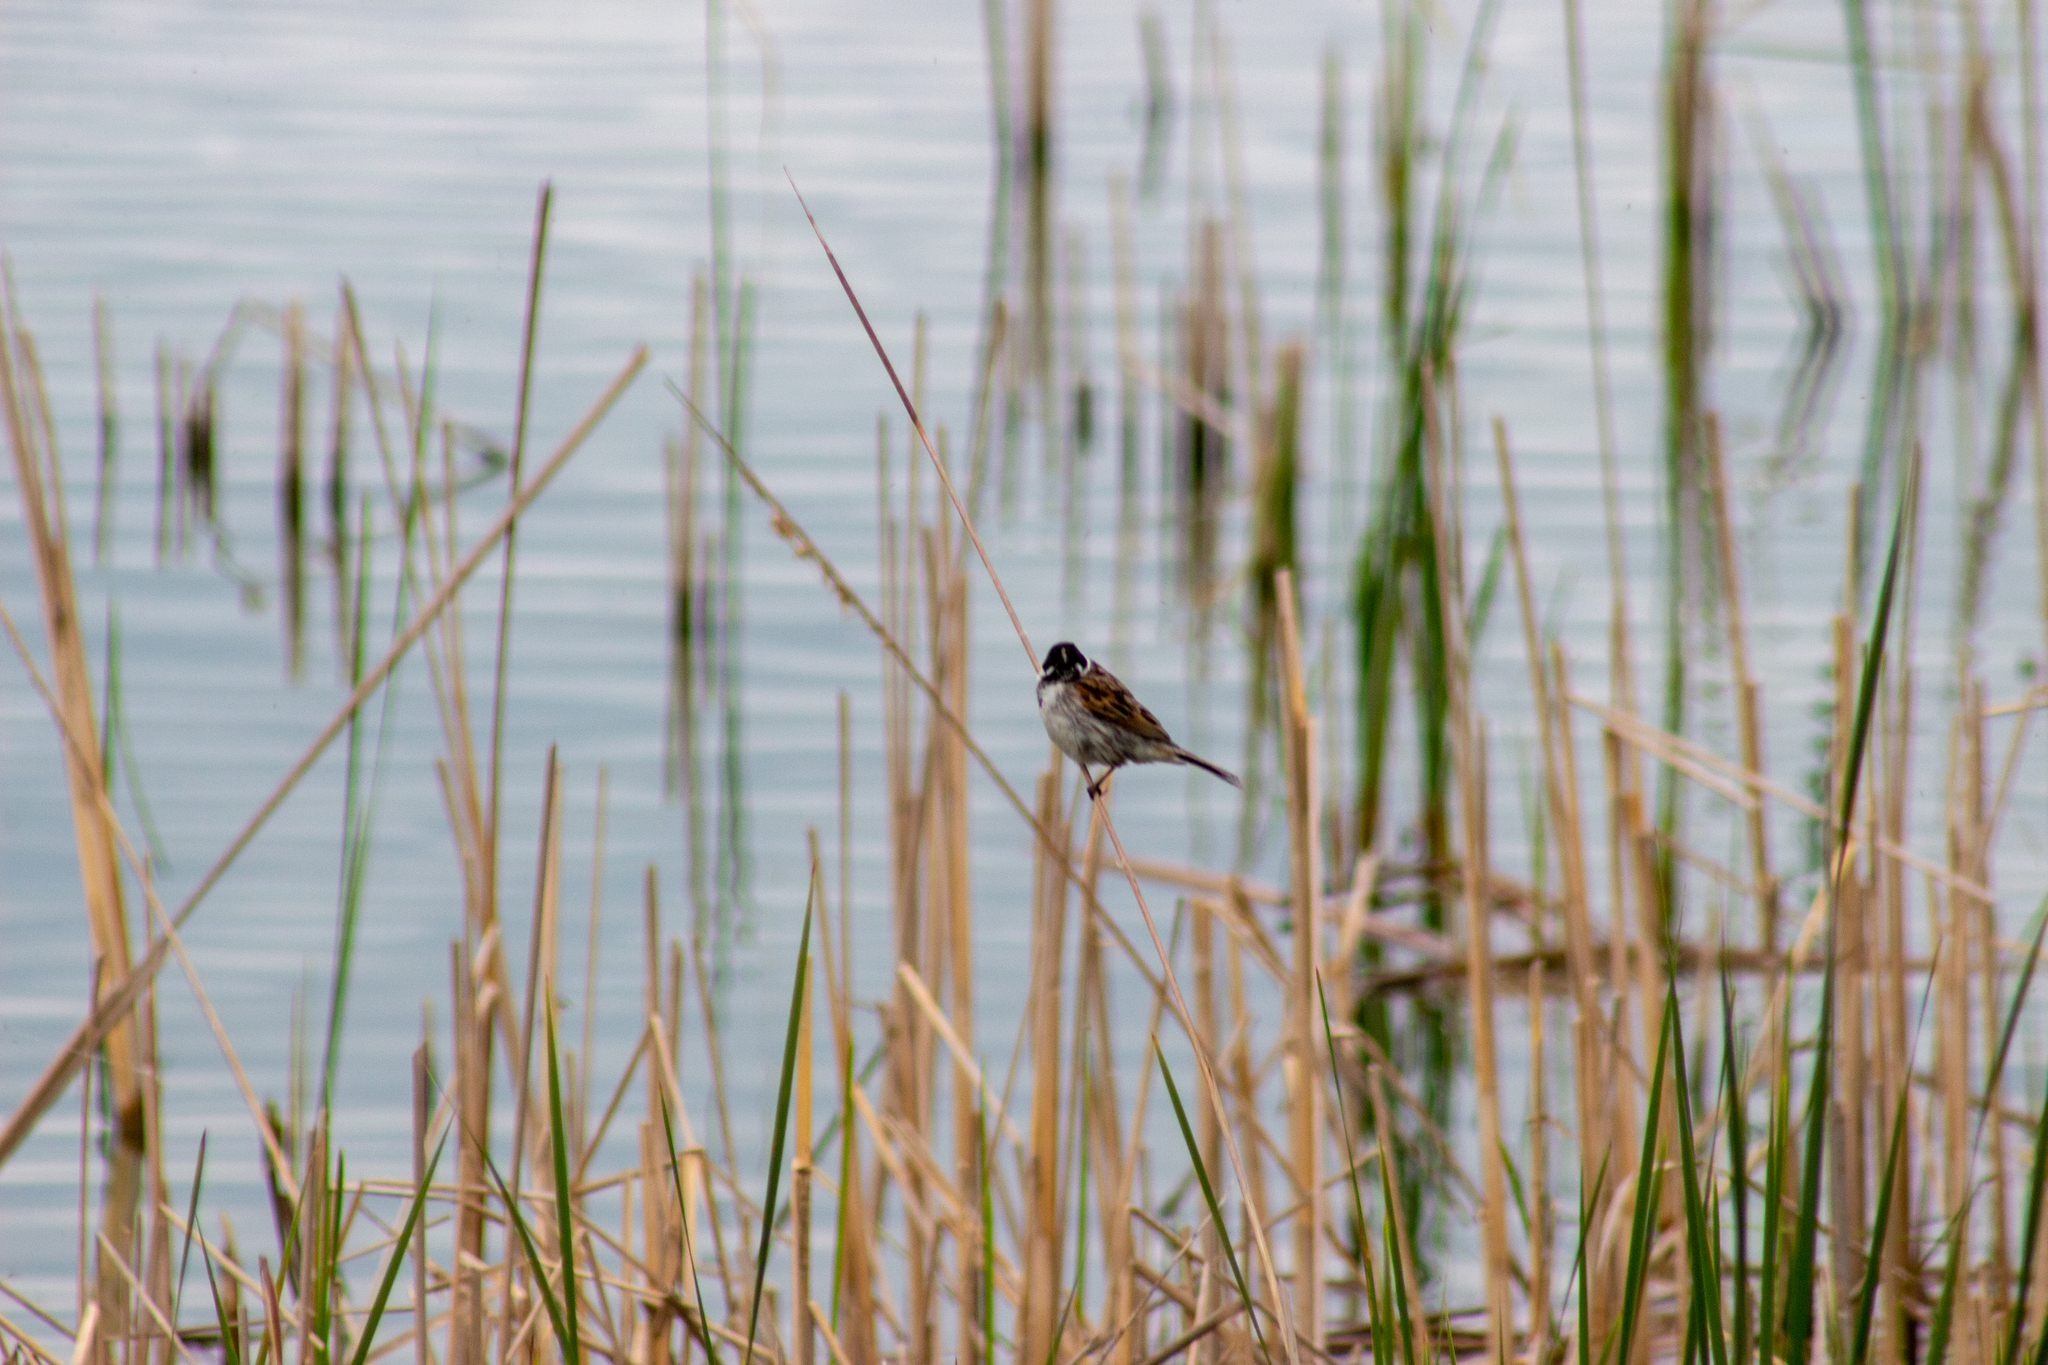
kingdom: Animalia
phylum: Chordata
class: Aves
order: Passeriformes
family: Emberizidae
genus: Emberiza
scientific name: Emberiza schoeniclus
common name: Reed bunting
